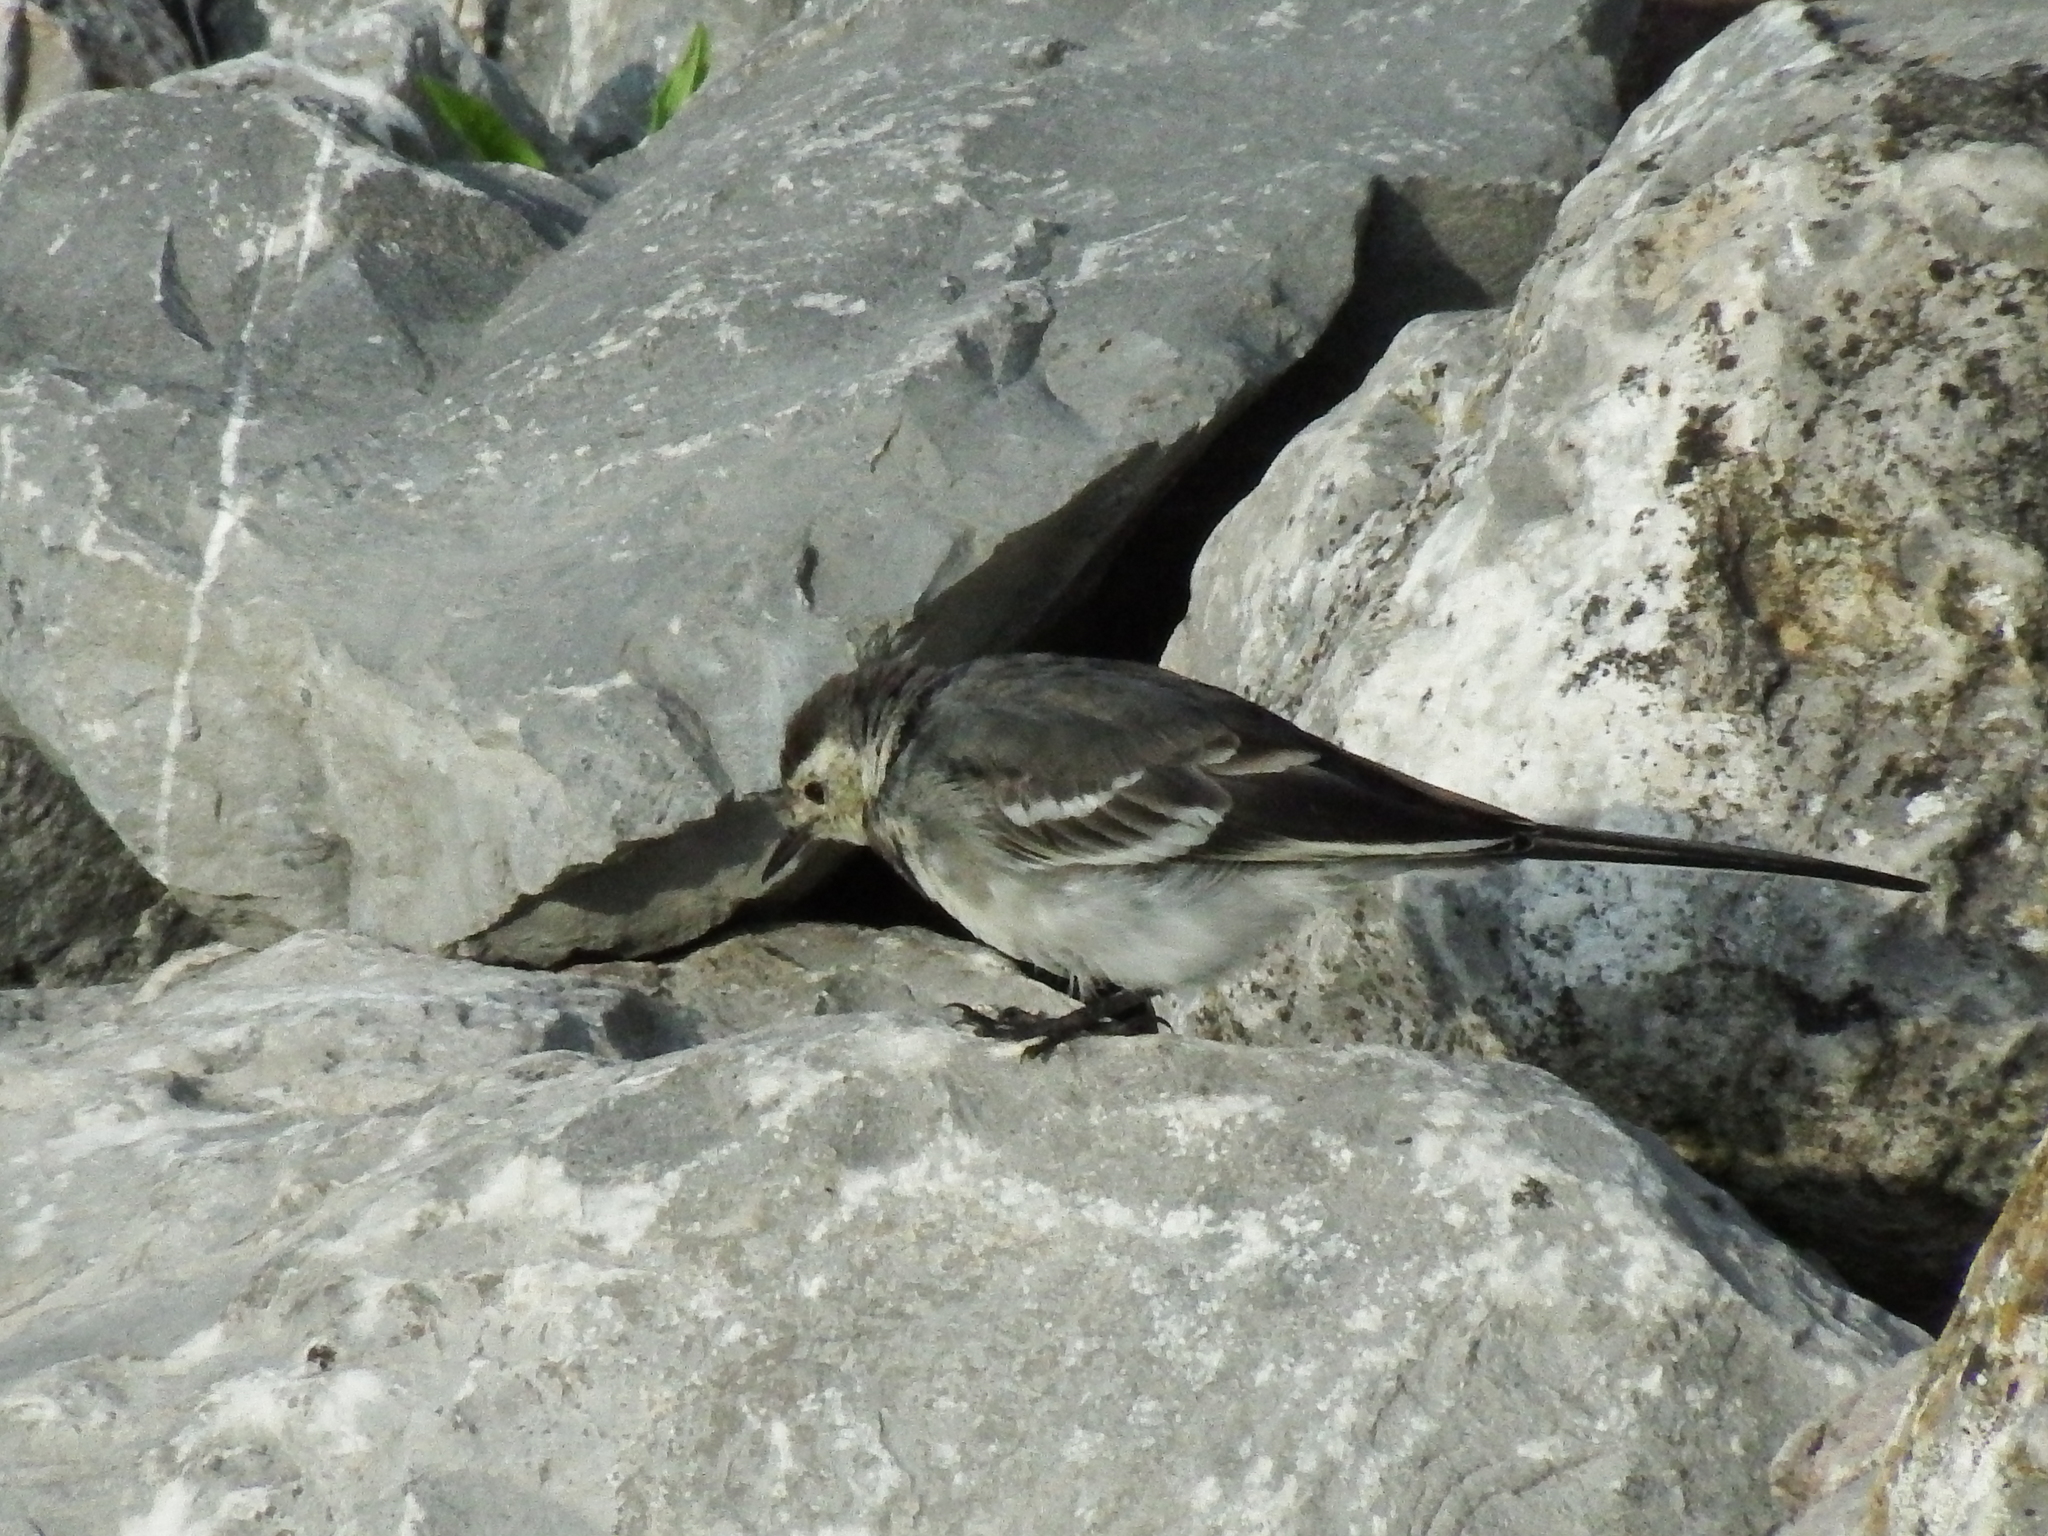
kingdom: Animalia
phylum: Chordata
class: Aves
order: Passeriformes
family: Motacillidae
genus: Motacilla
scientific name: Motacilla alba
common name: White wagtail
